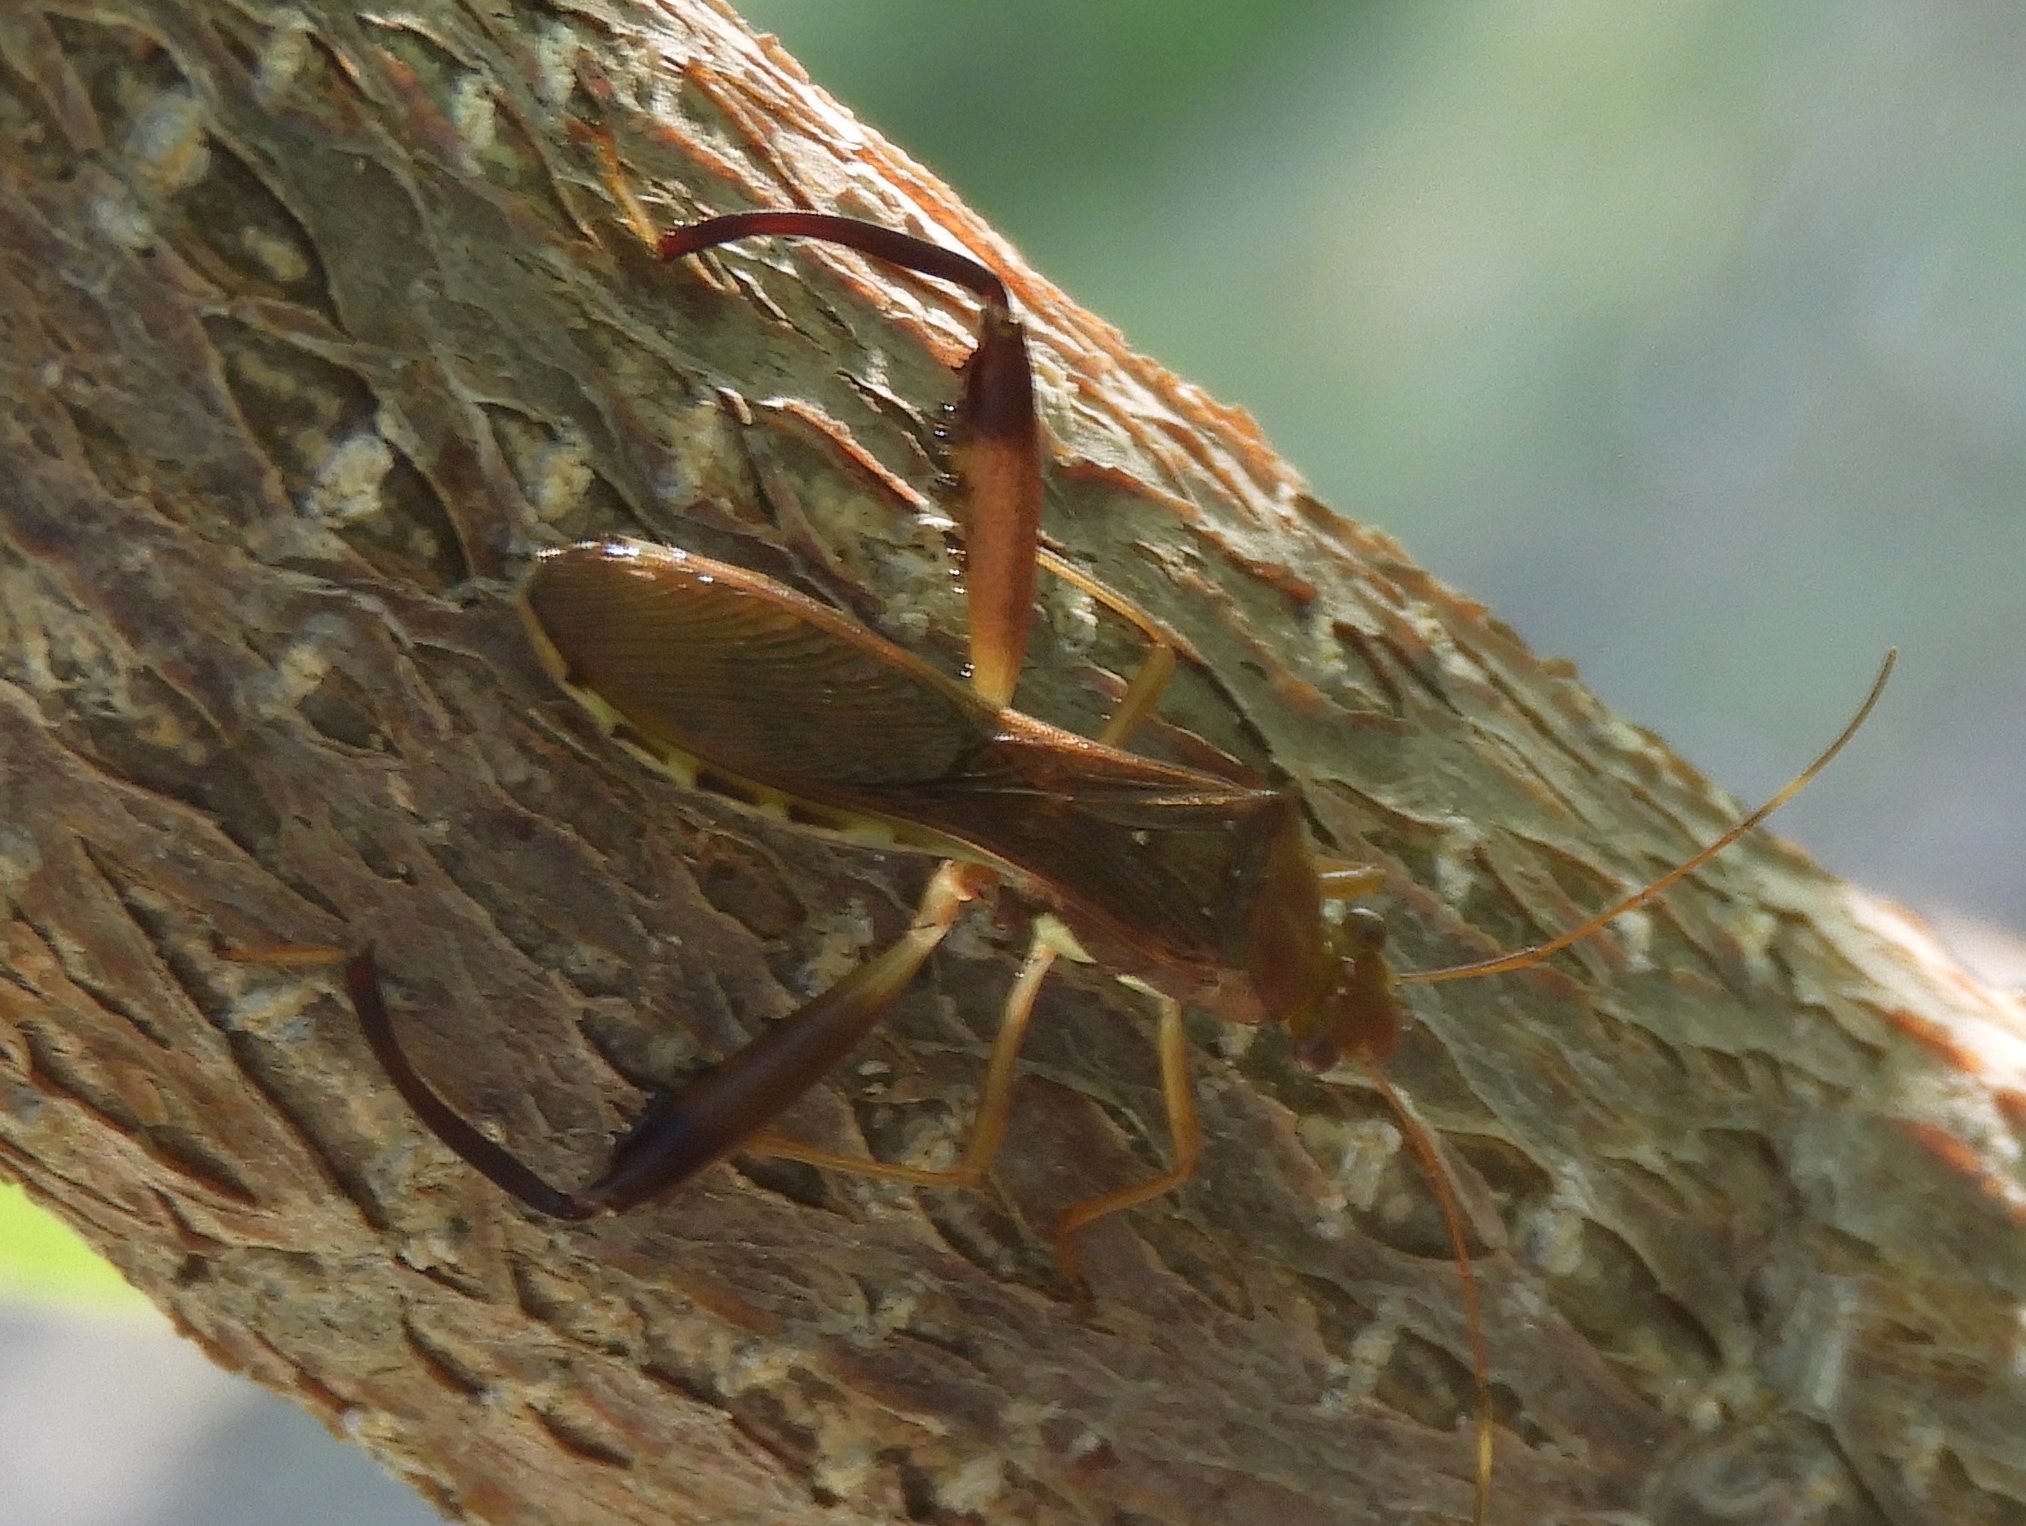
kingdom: Animalia
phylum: Arthropoda
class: Insecta
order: Hemiptera
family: Alydidae
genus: Hyalymenus
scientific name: Hyalymenus
